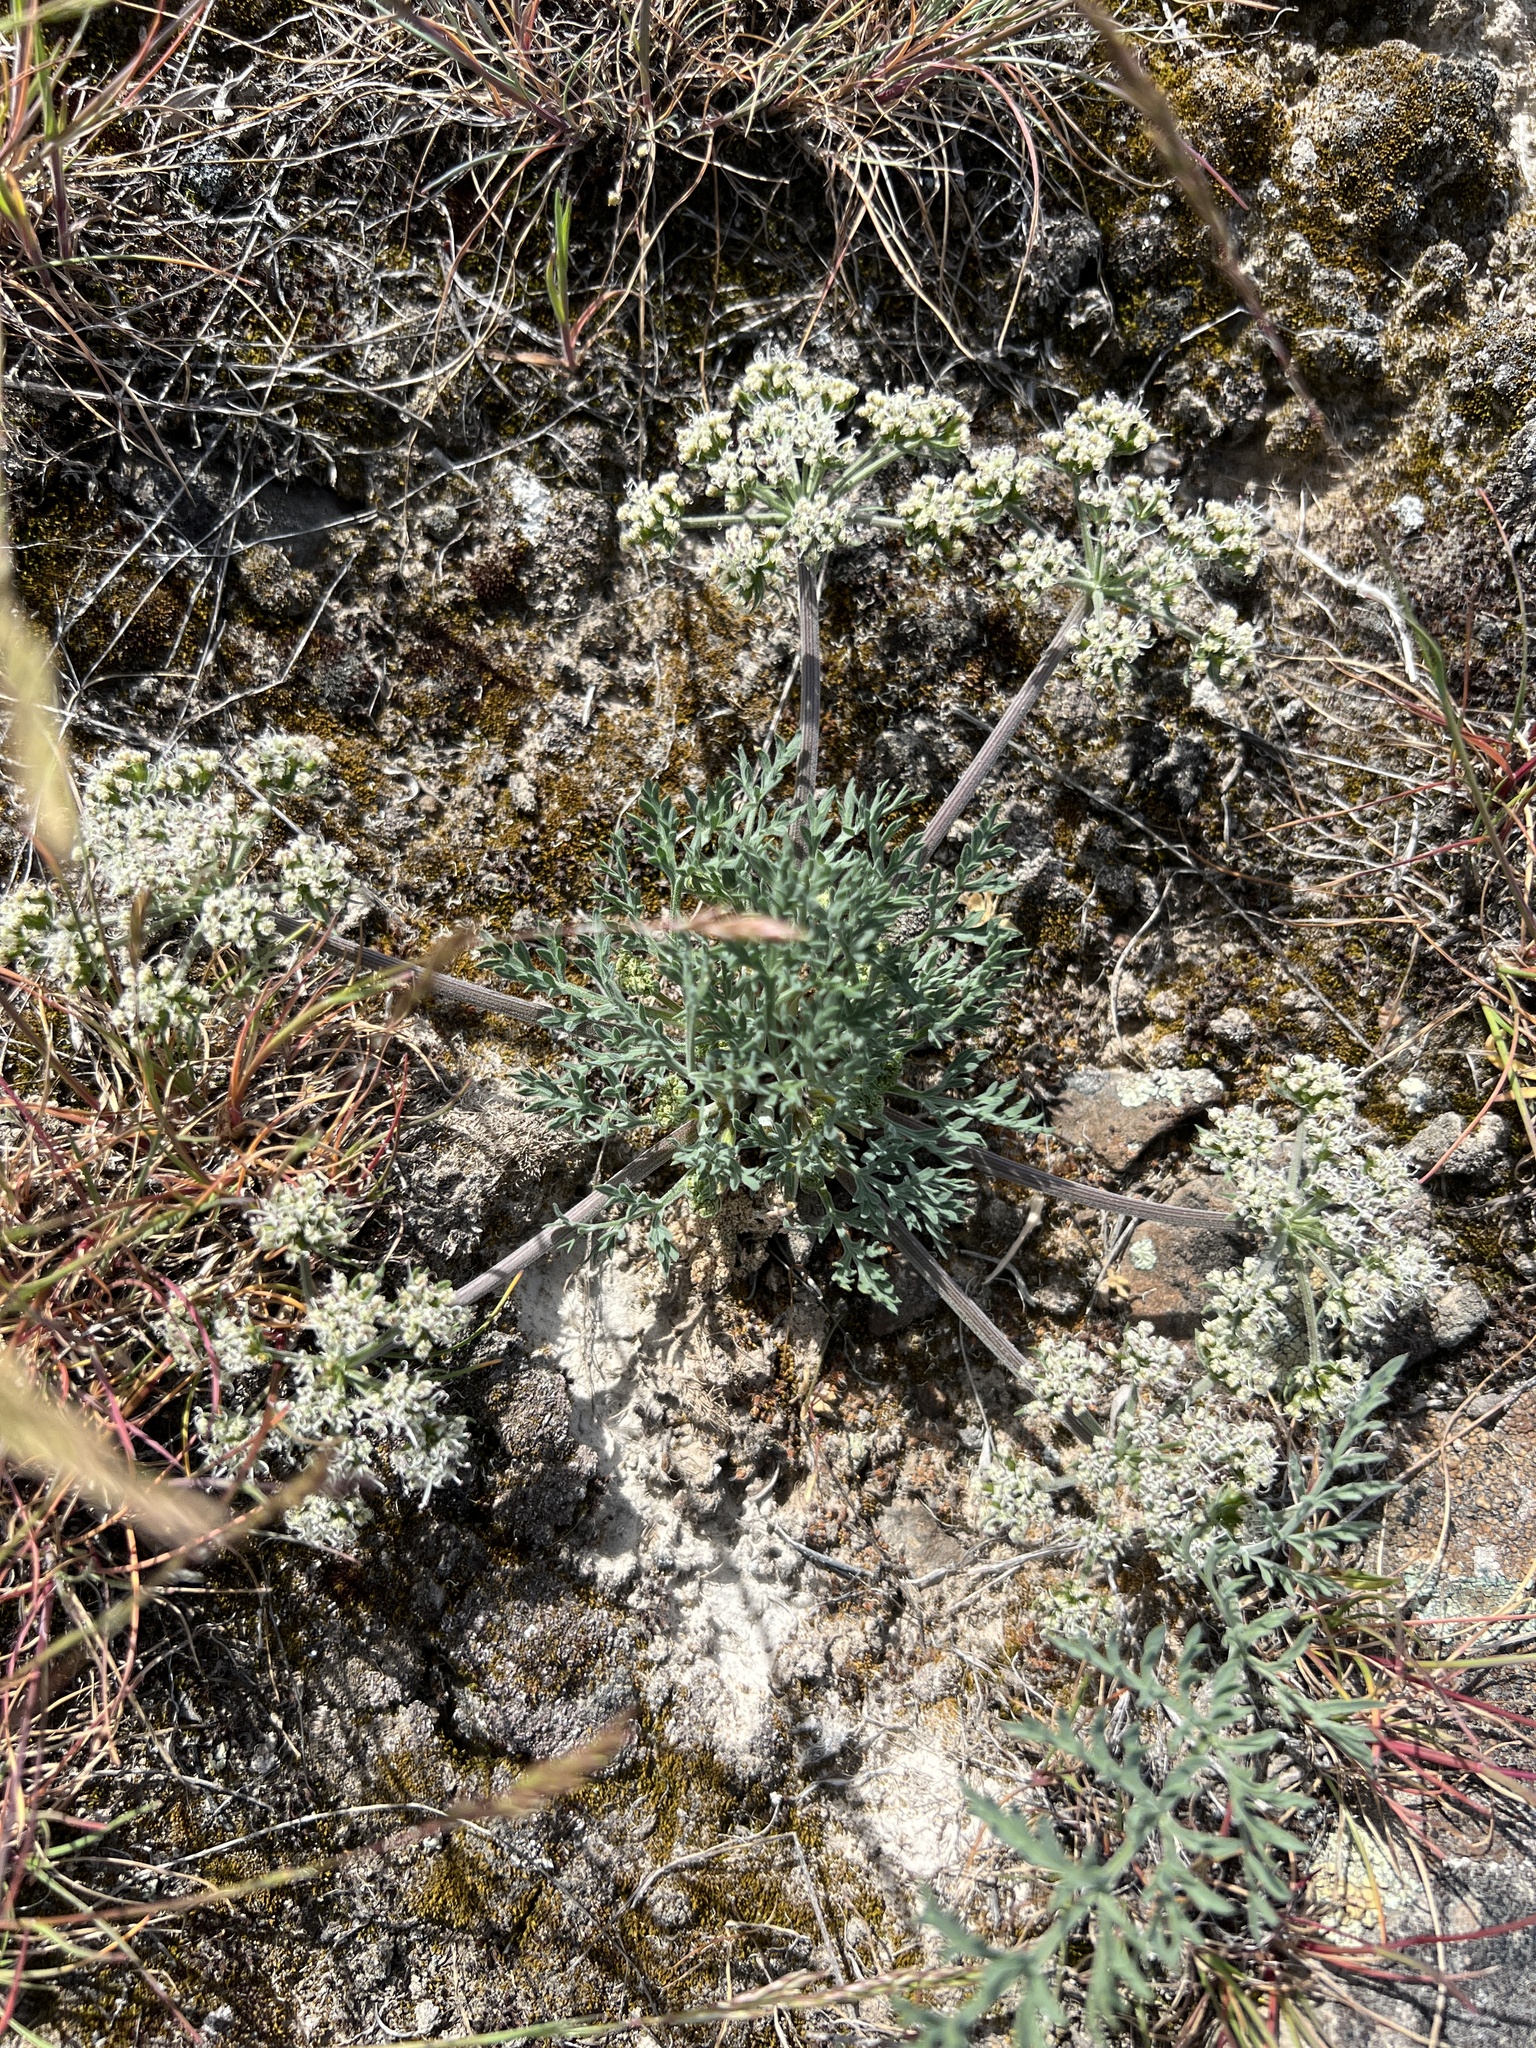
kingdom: Plantae
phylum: Tracheophyta
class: Magnoliopsida
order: Apiales
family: Apiaceae
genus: Lomatium
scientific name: Lomatium macrocarpum
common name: Big-seed biscuitroot
